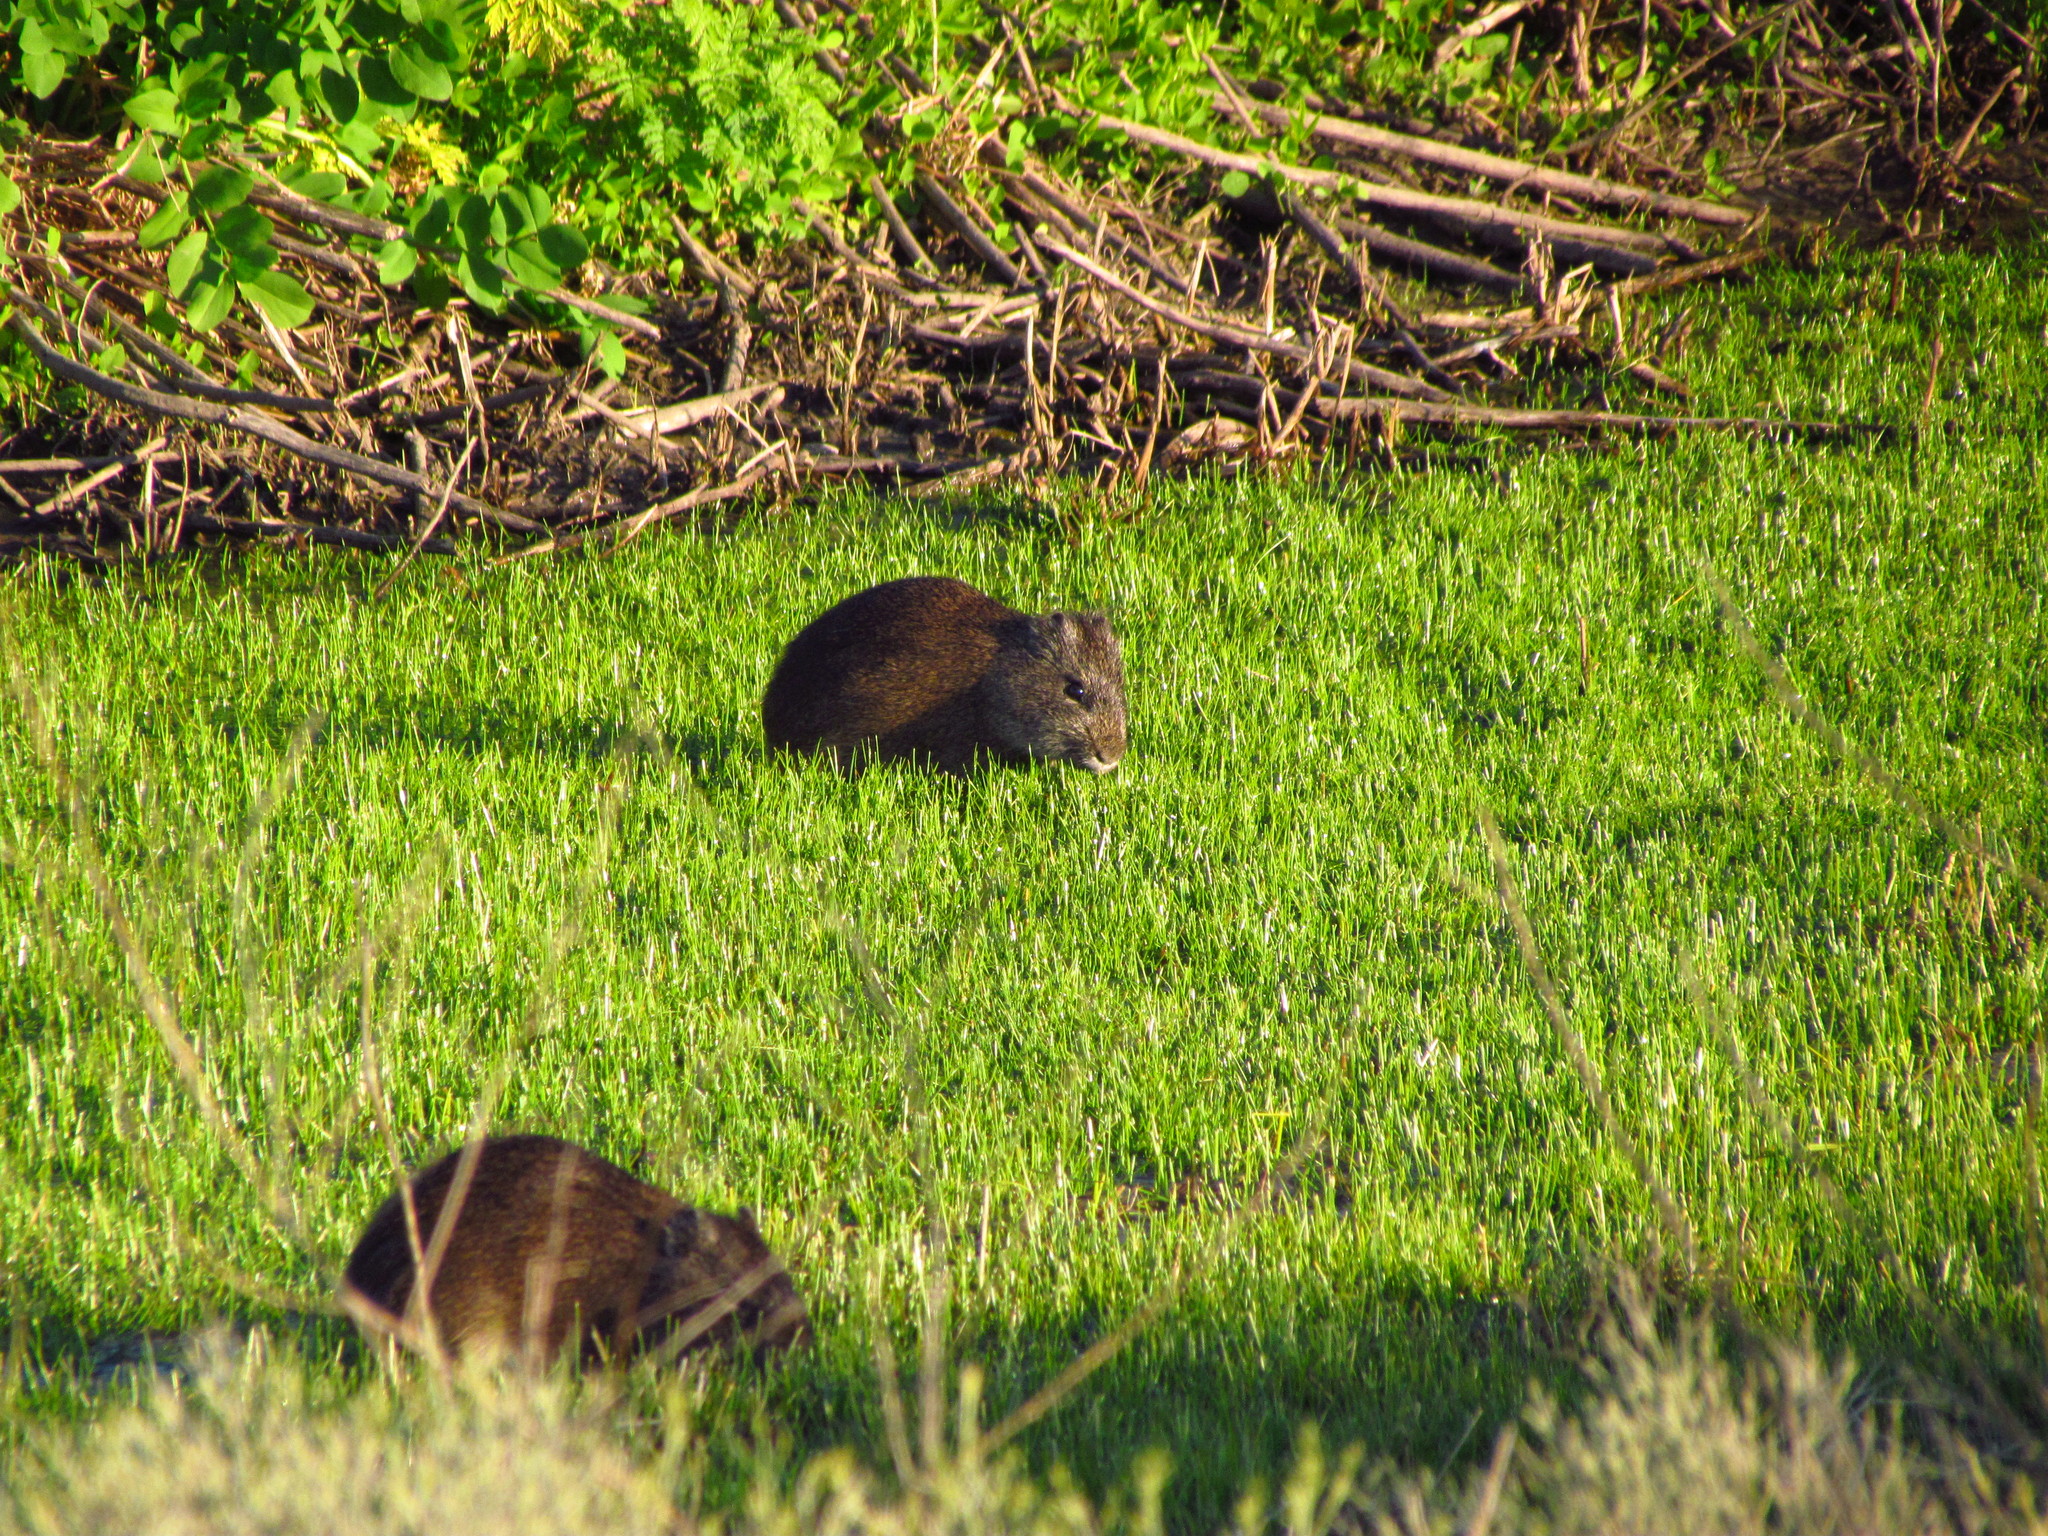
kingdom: Animalia
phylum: Chordata
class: Mammalia
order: Rodentia
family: Caviidae
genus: Cavia
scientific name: Cavia aperea
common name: Brazilian guinea pig
